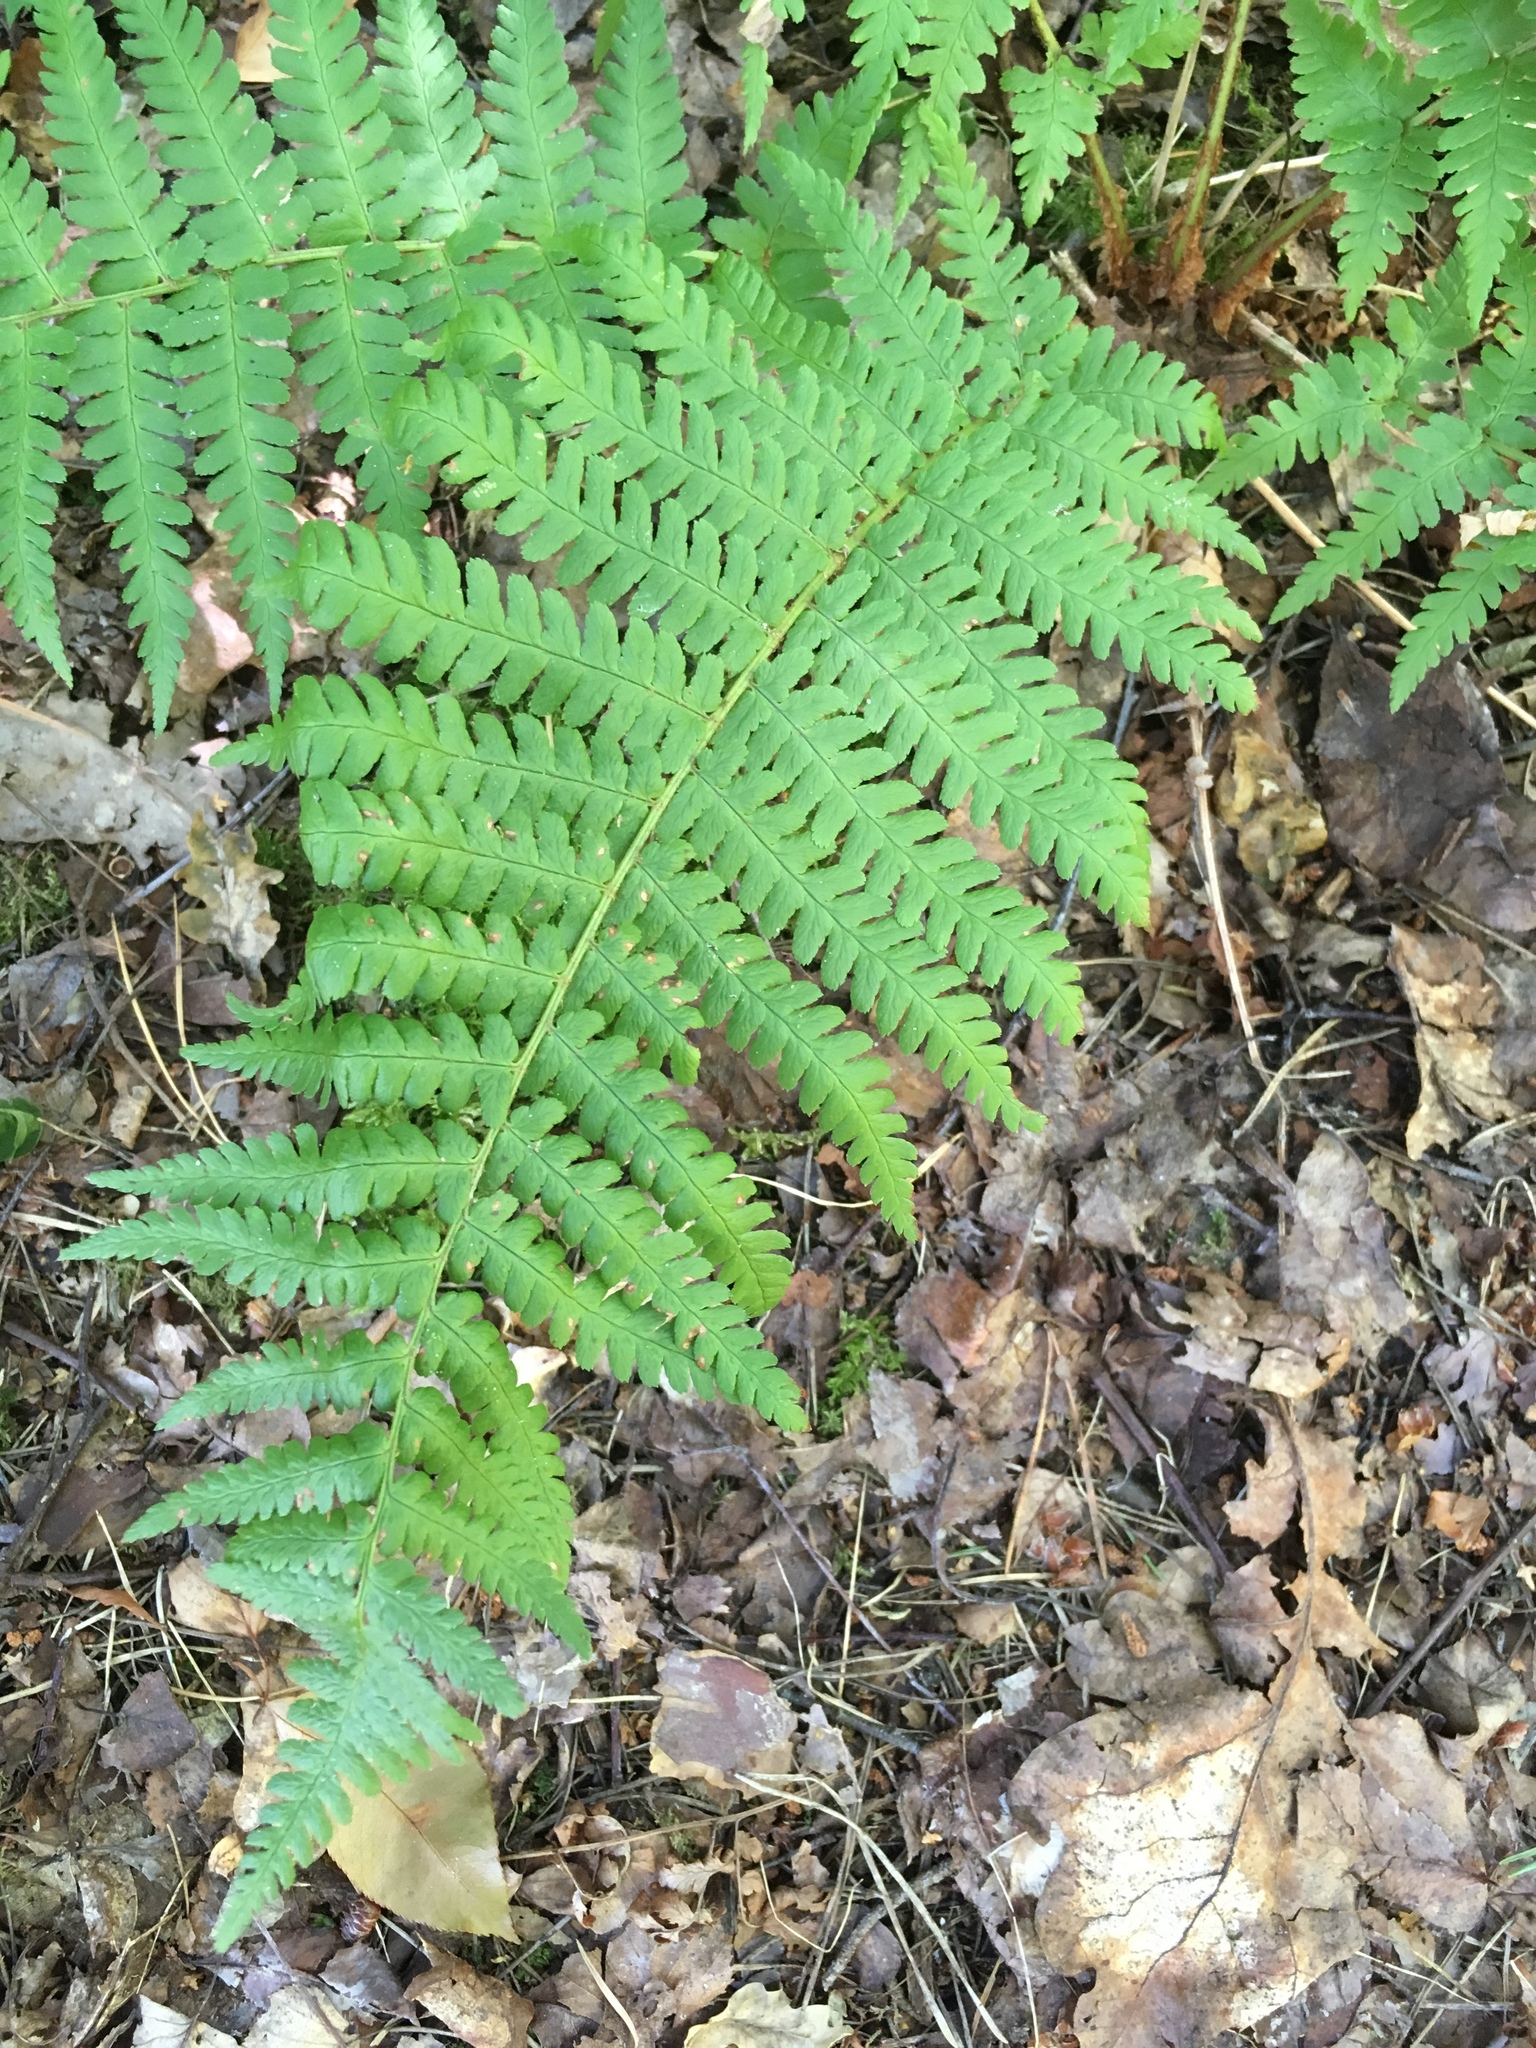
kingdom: Plantae
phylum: Tracheophyta
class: Polypodiopsida
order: Polypodiales
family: Dryopteridaceae
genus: Dryopteris
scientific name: Dryopteris filix-mas
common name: Male fern
